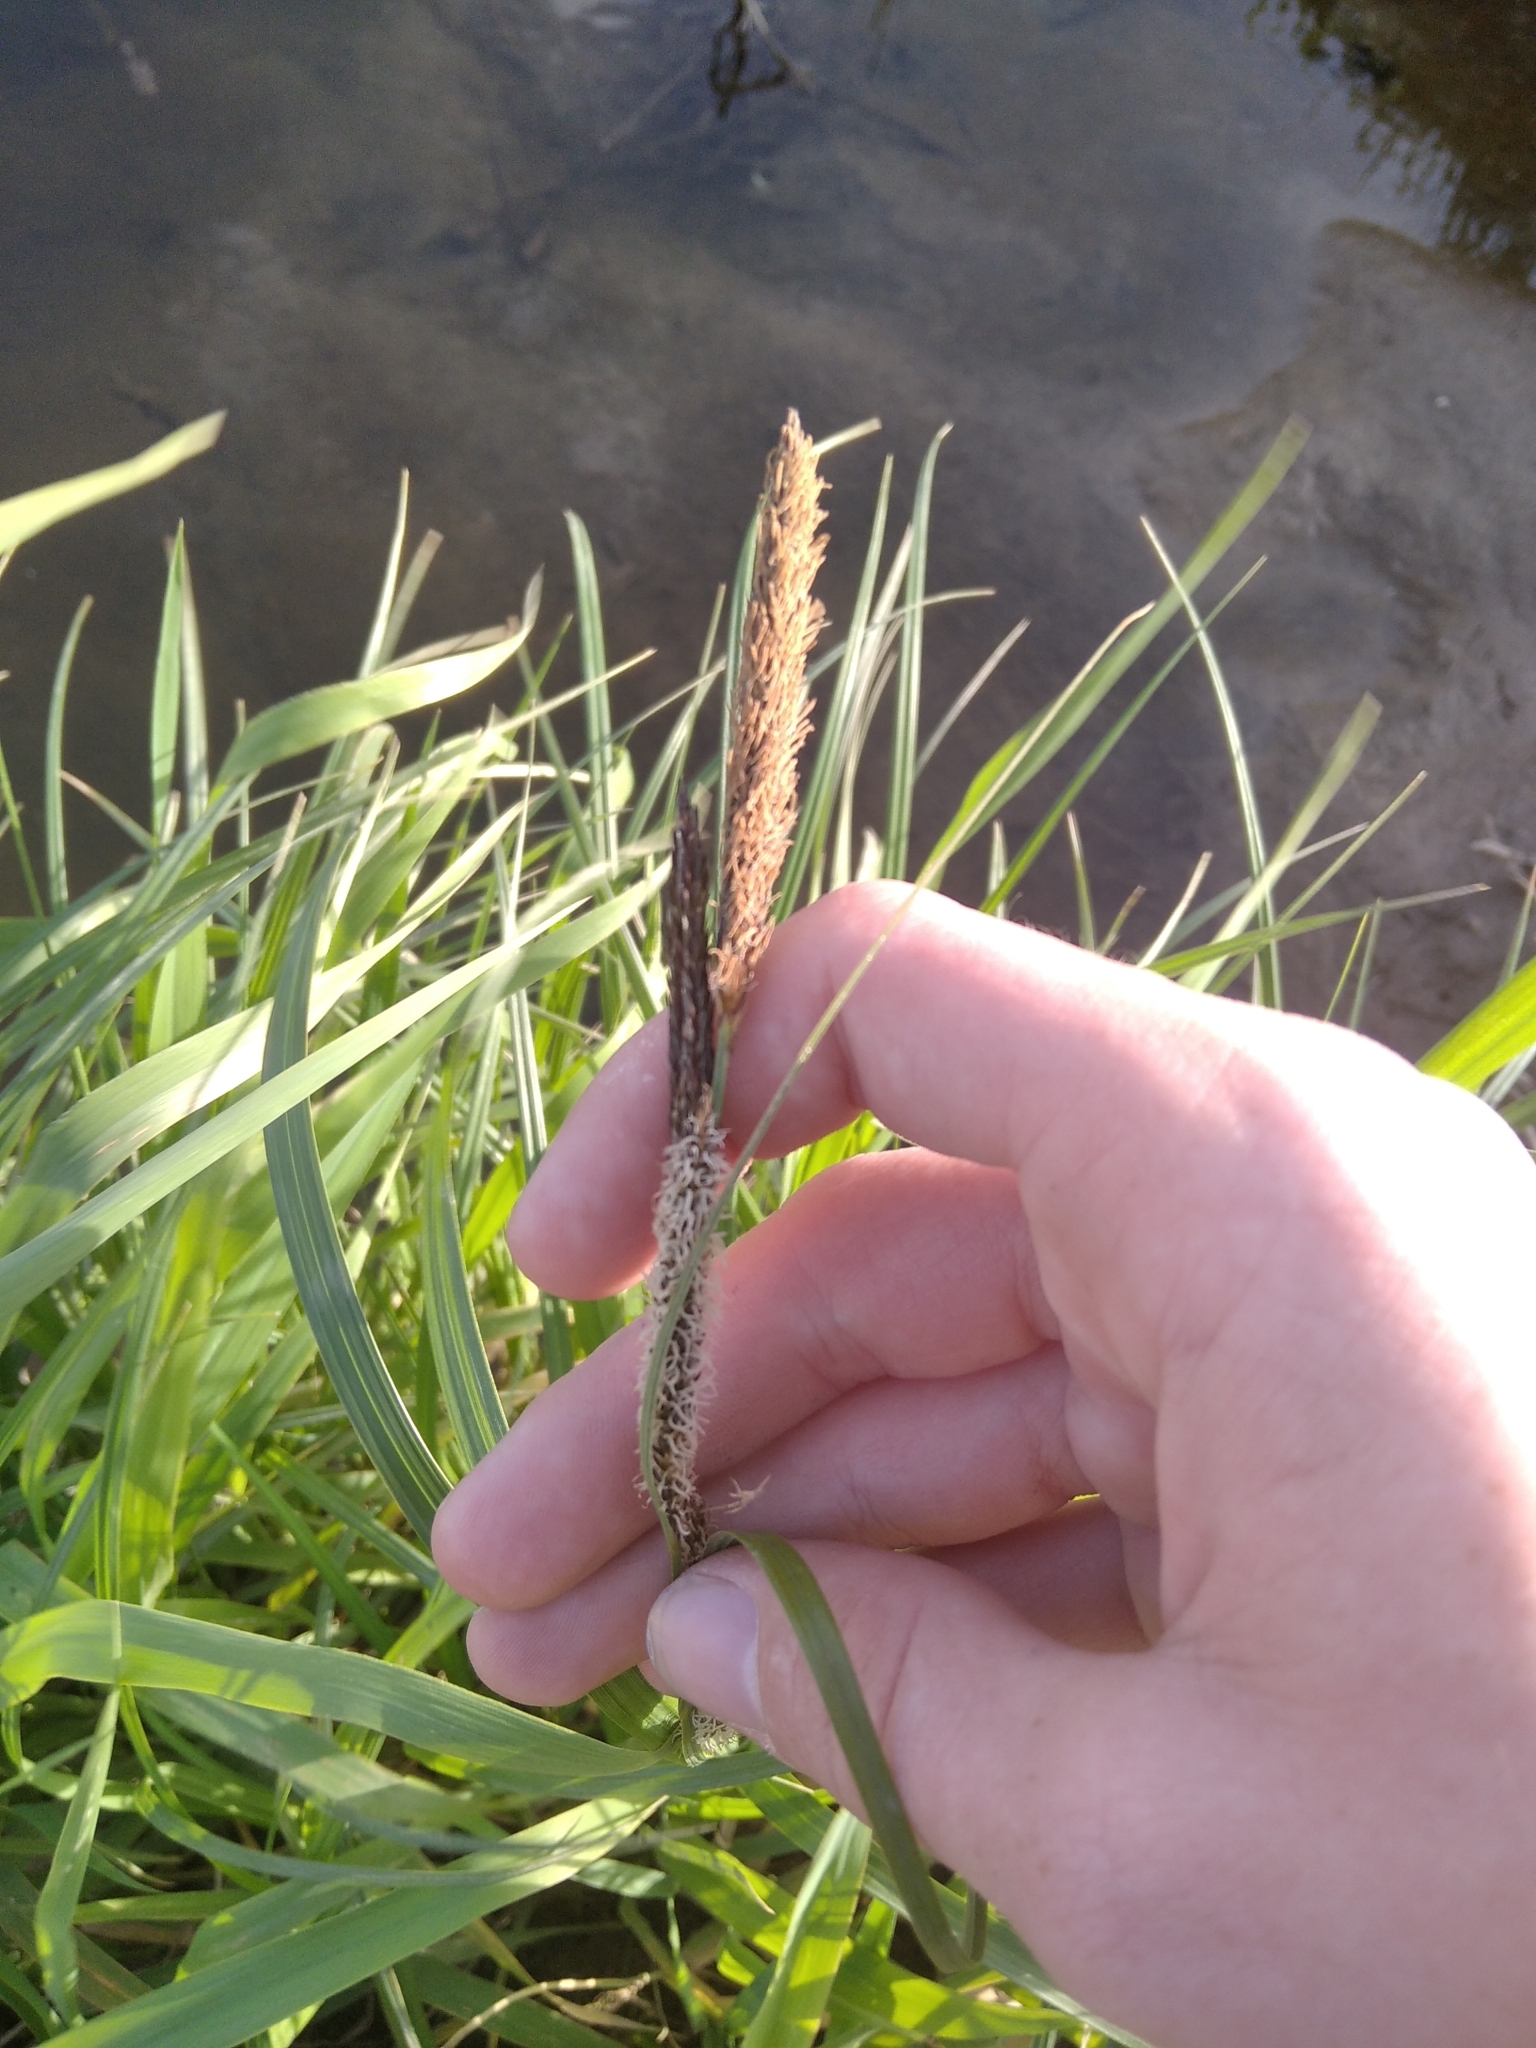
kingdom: Plantae
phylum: Tracheophyta
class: Liliopsida
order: Poales
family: Cyperaceae
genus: Carex
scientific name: Carex acuta
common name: Slender tufted-sedge
